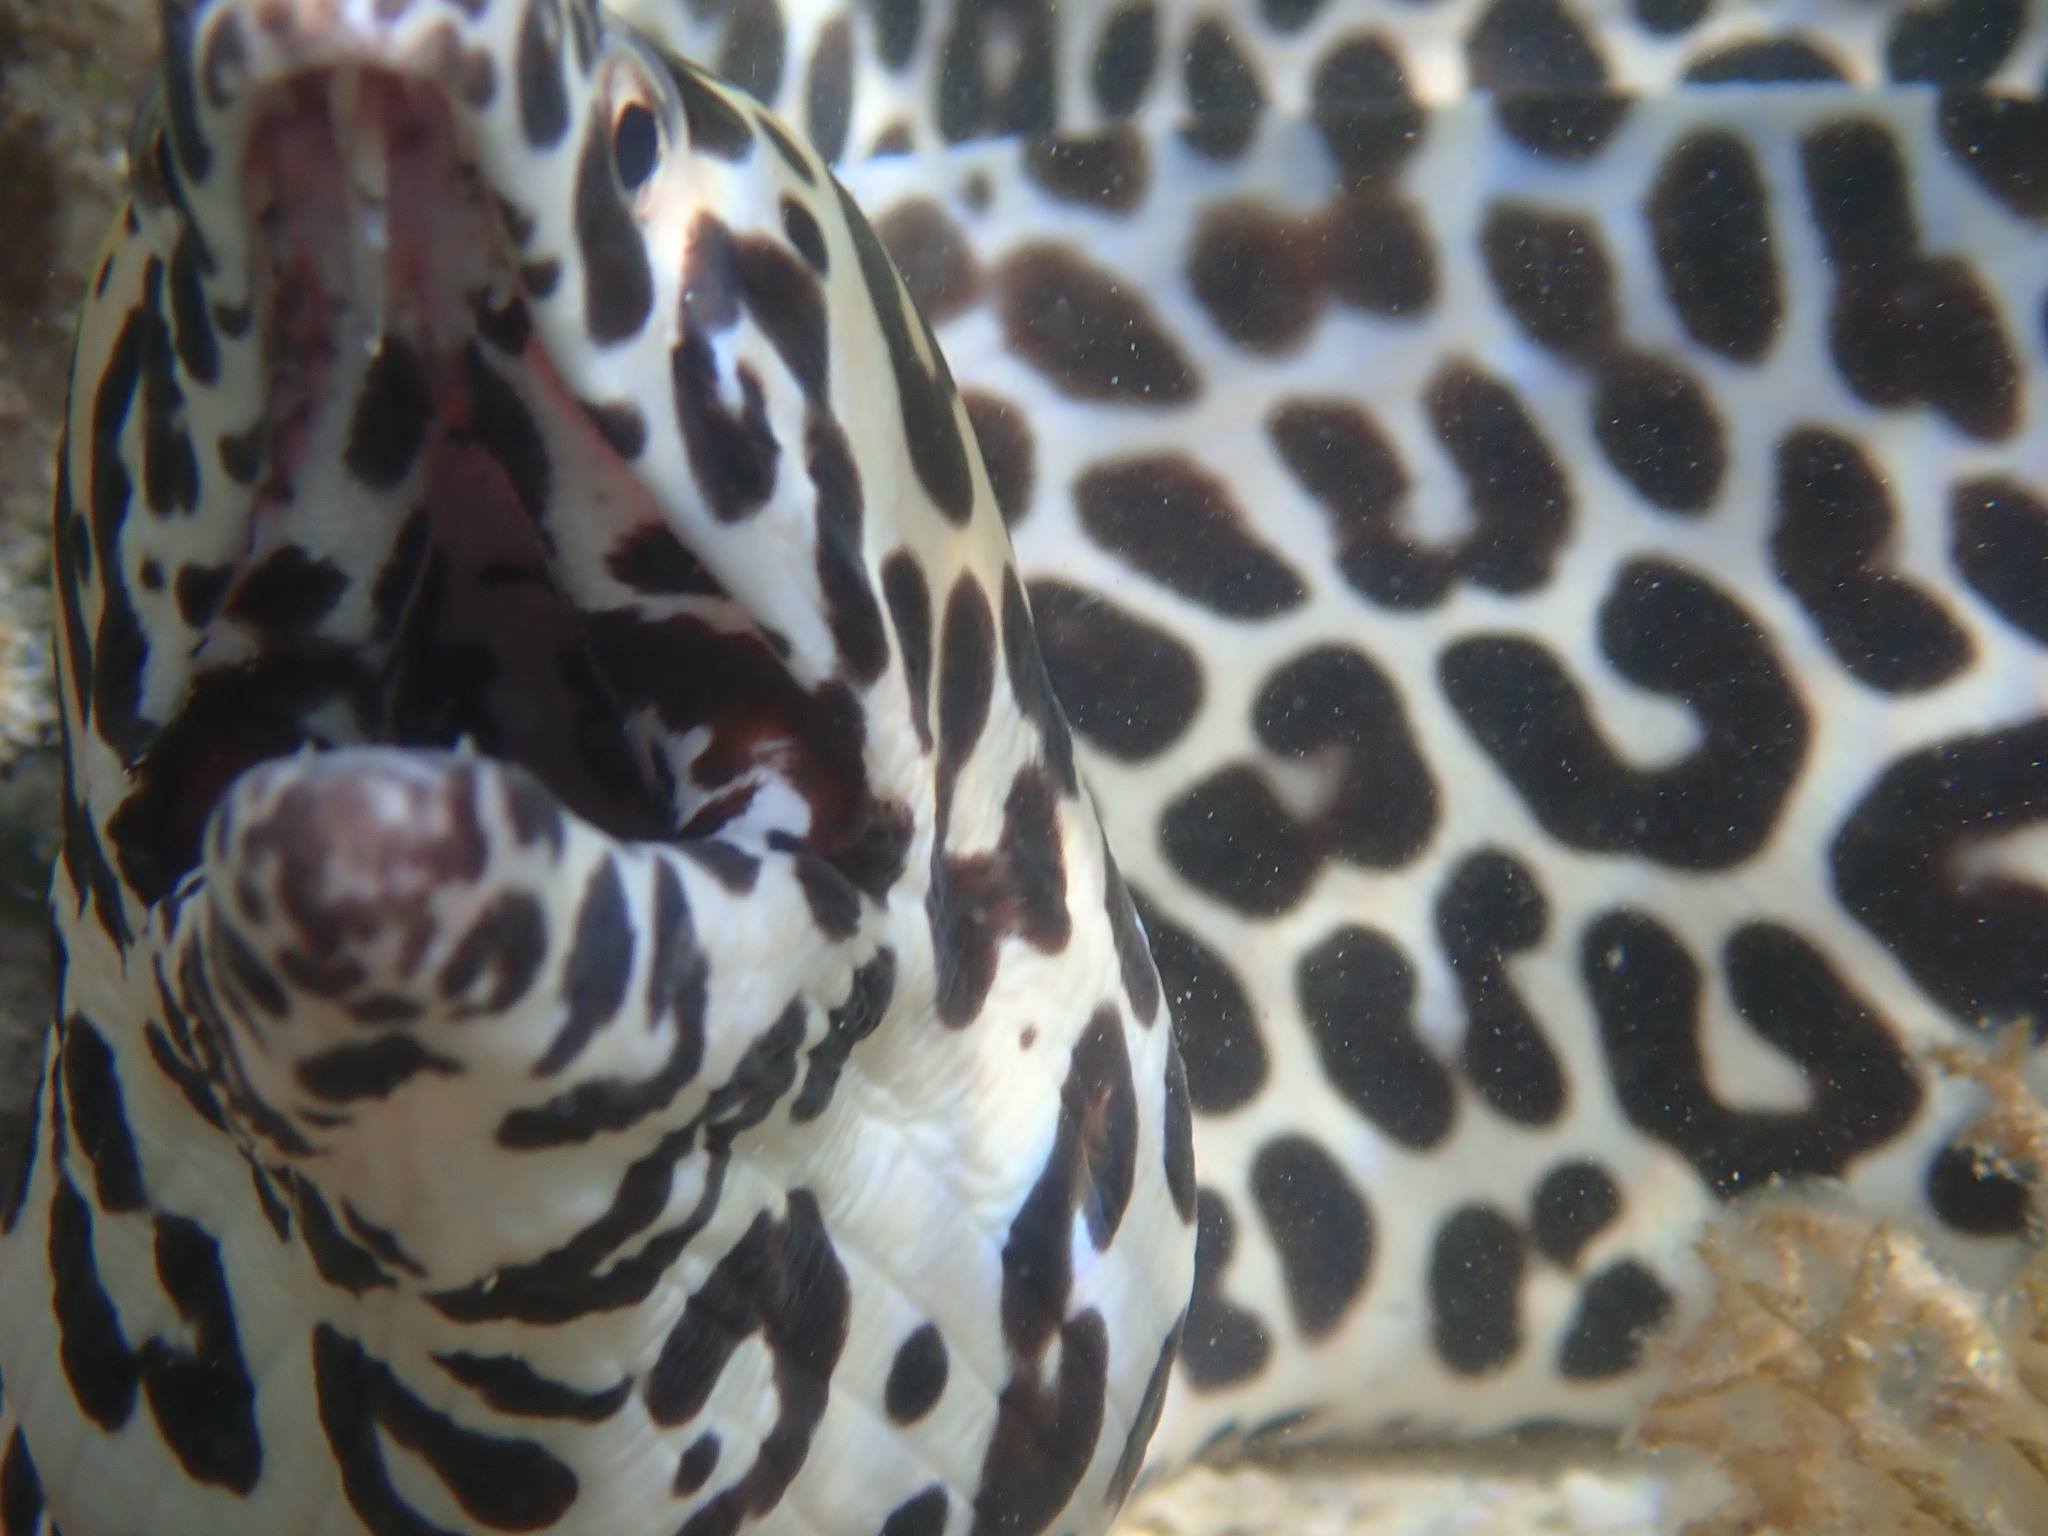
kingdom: Animalia
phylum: Chordata
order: Anguilliformes
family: Muraenidae
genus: Gymnothorax
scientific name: Gymnothorax isingteena
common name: Spotted moray
